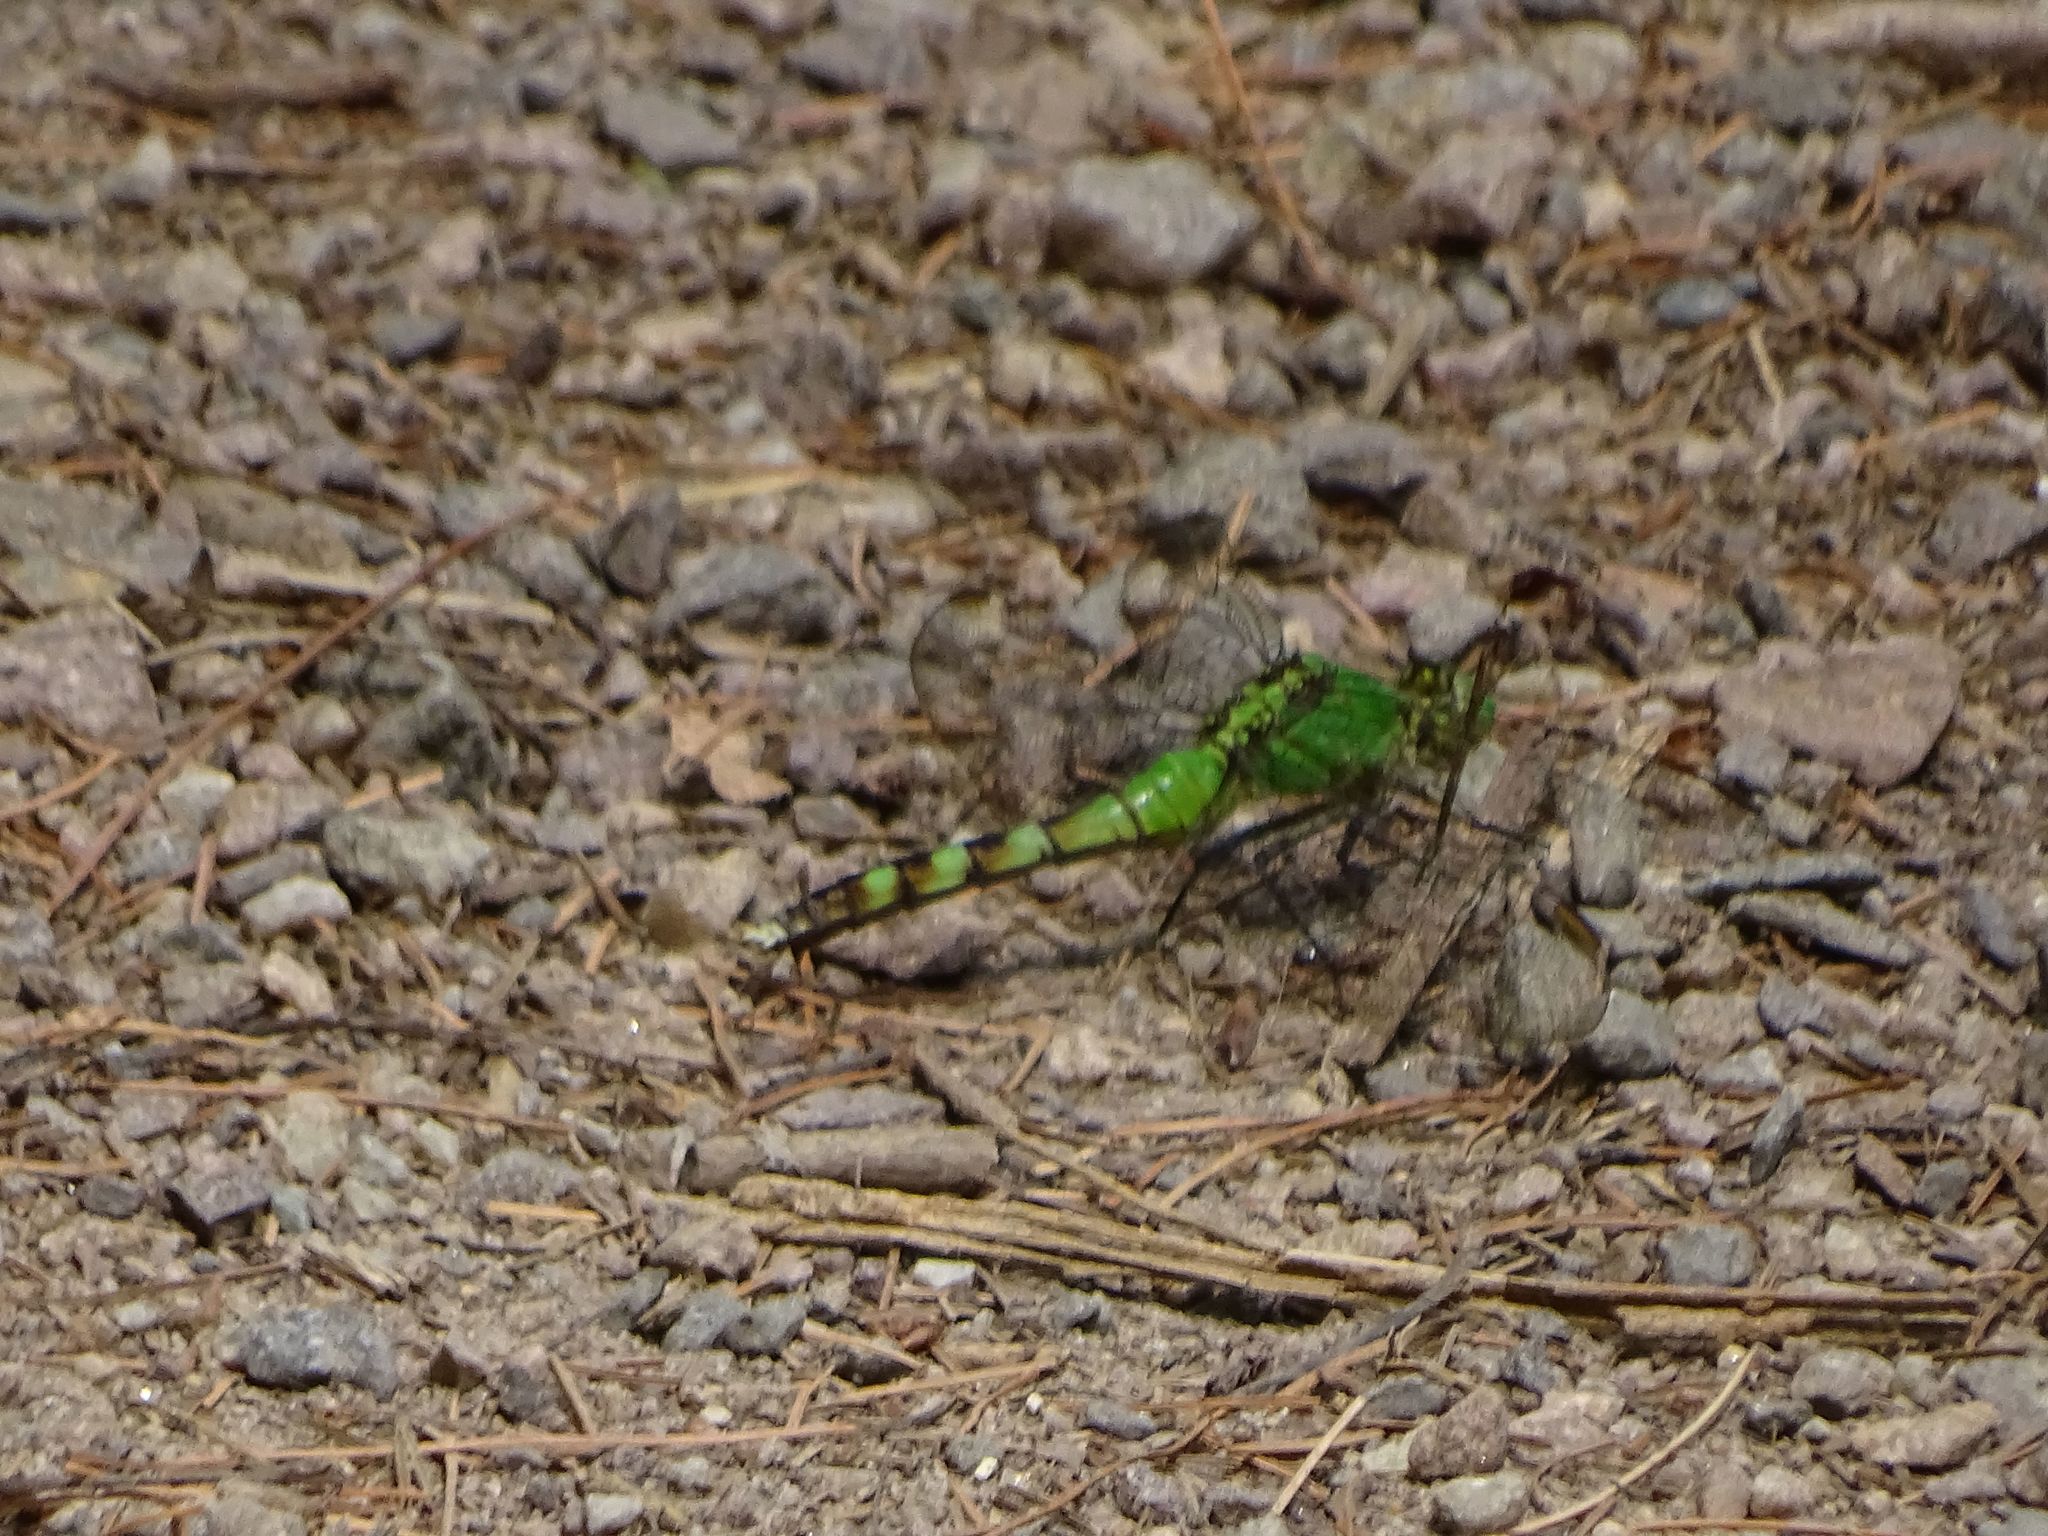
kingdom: Animalia
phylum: Arthropoda
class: Insecta
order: Odonata
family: Libellulidae
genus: Erythemis
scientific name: Erythemis simplicicollis
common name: Eastern pondhawk
